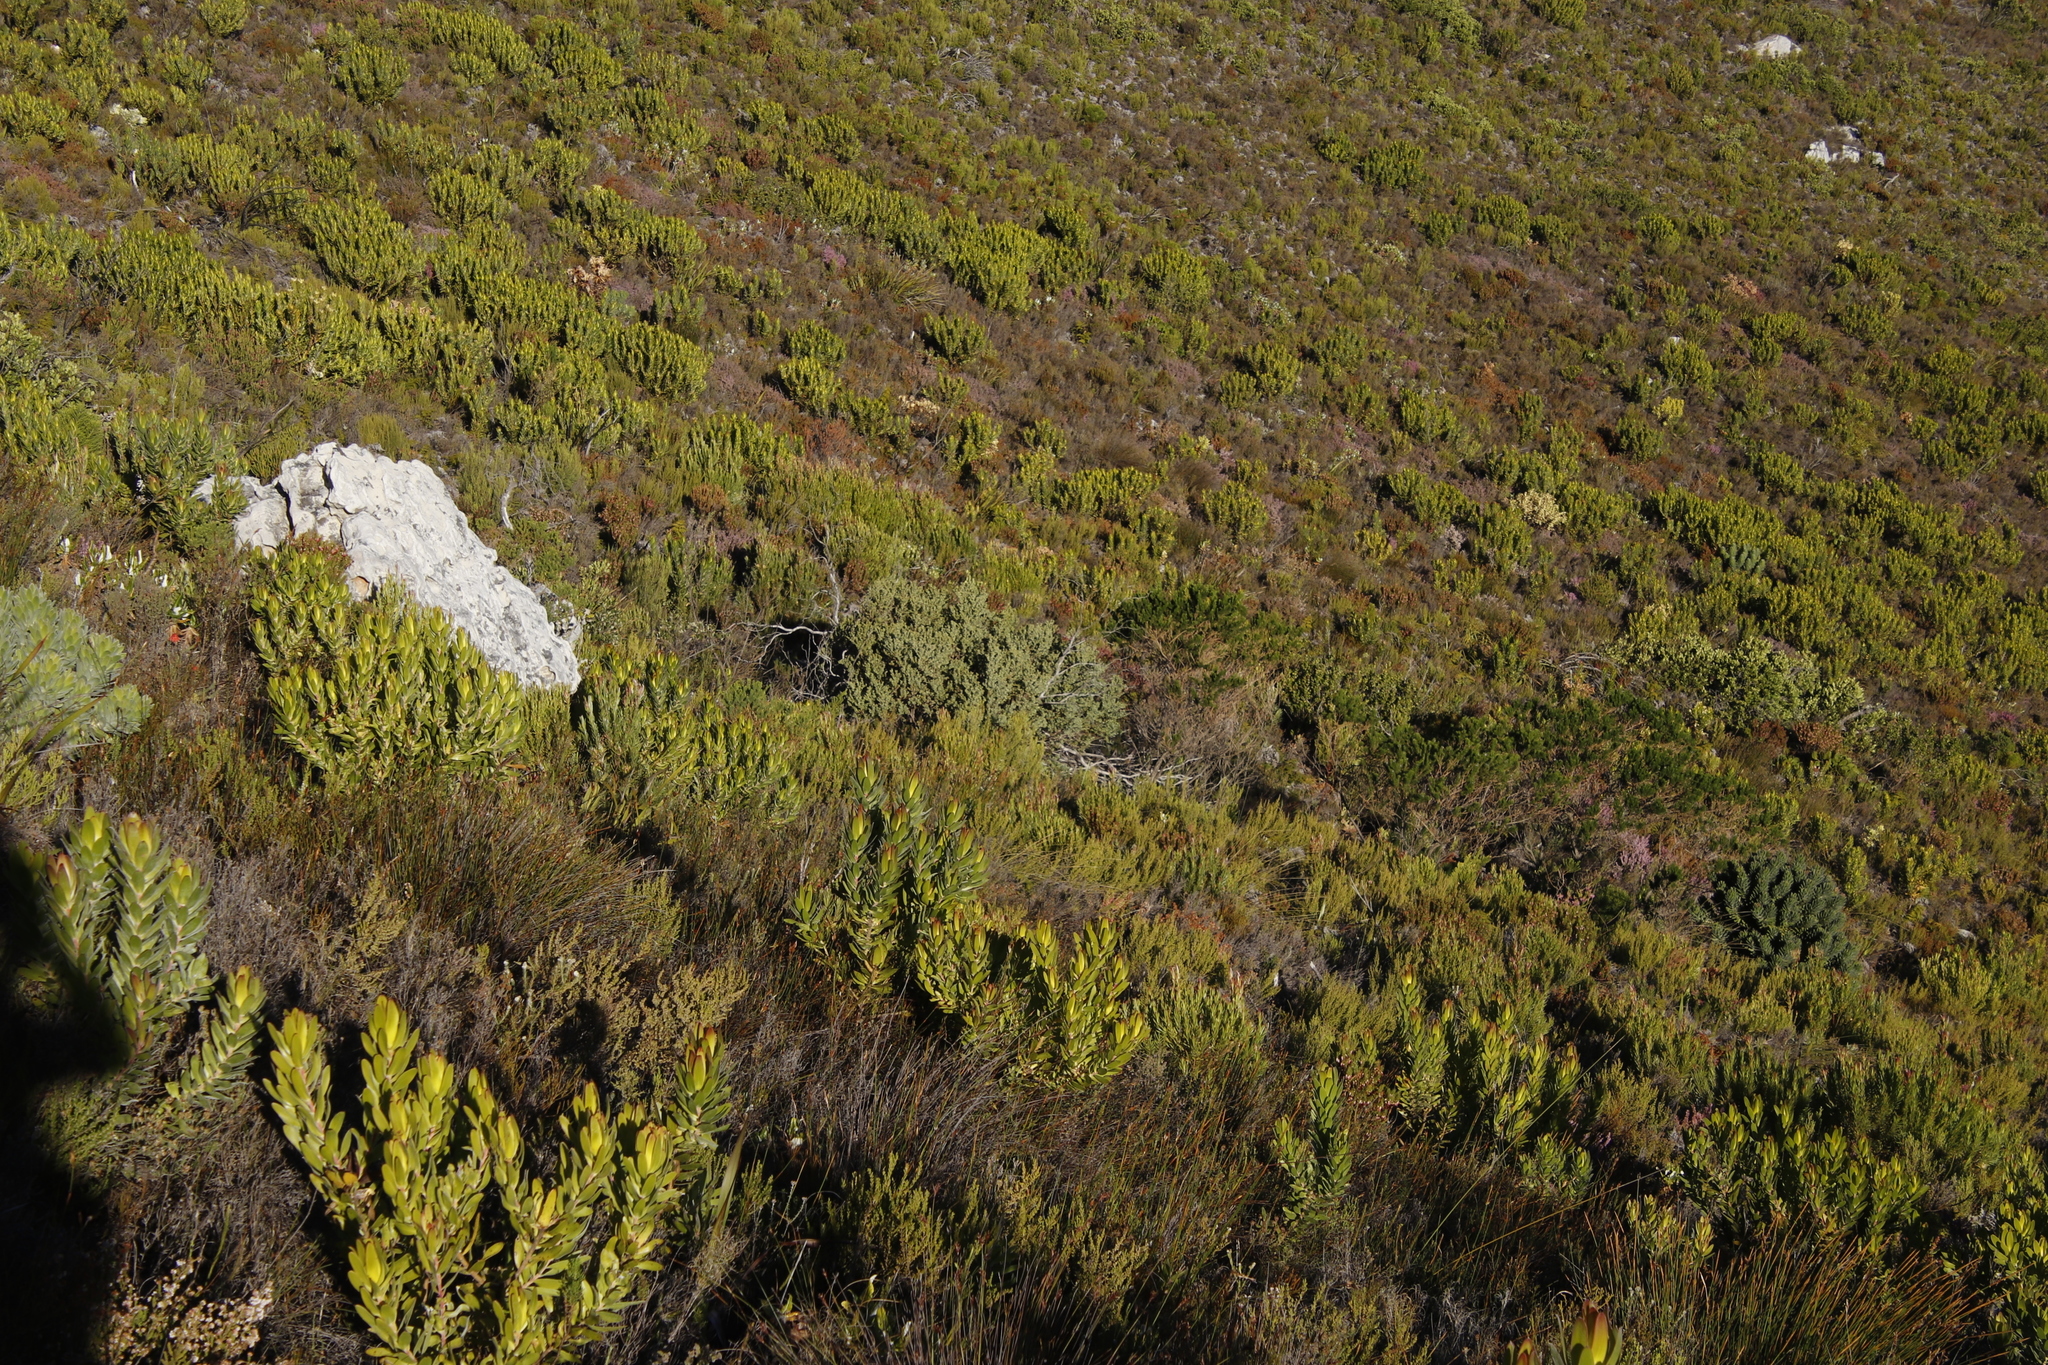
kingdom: Plantae
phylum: Tracheophyta
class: Magnoliopsida
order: Santalales
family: Santalaceae
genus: Osyris
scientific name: Osyris compressa
